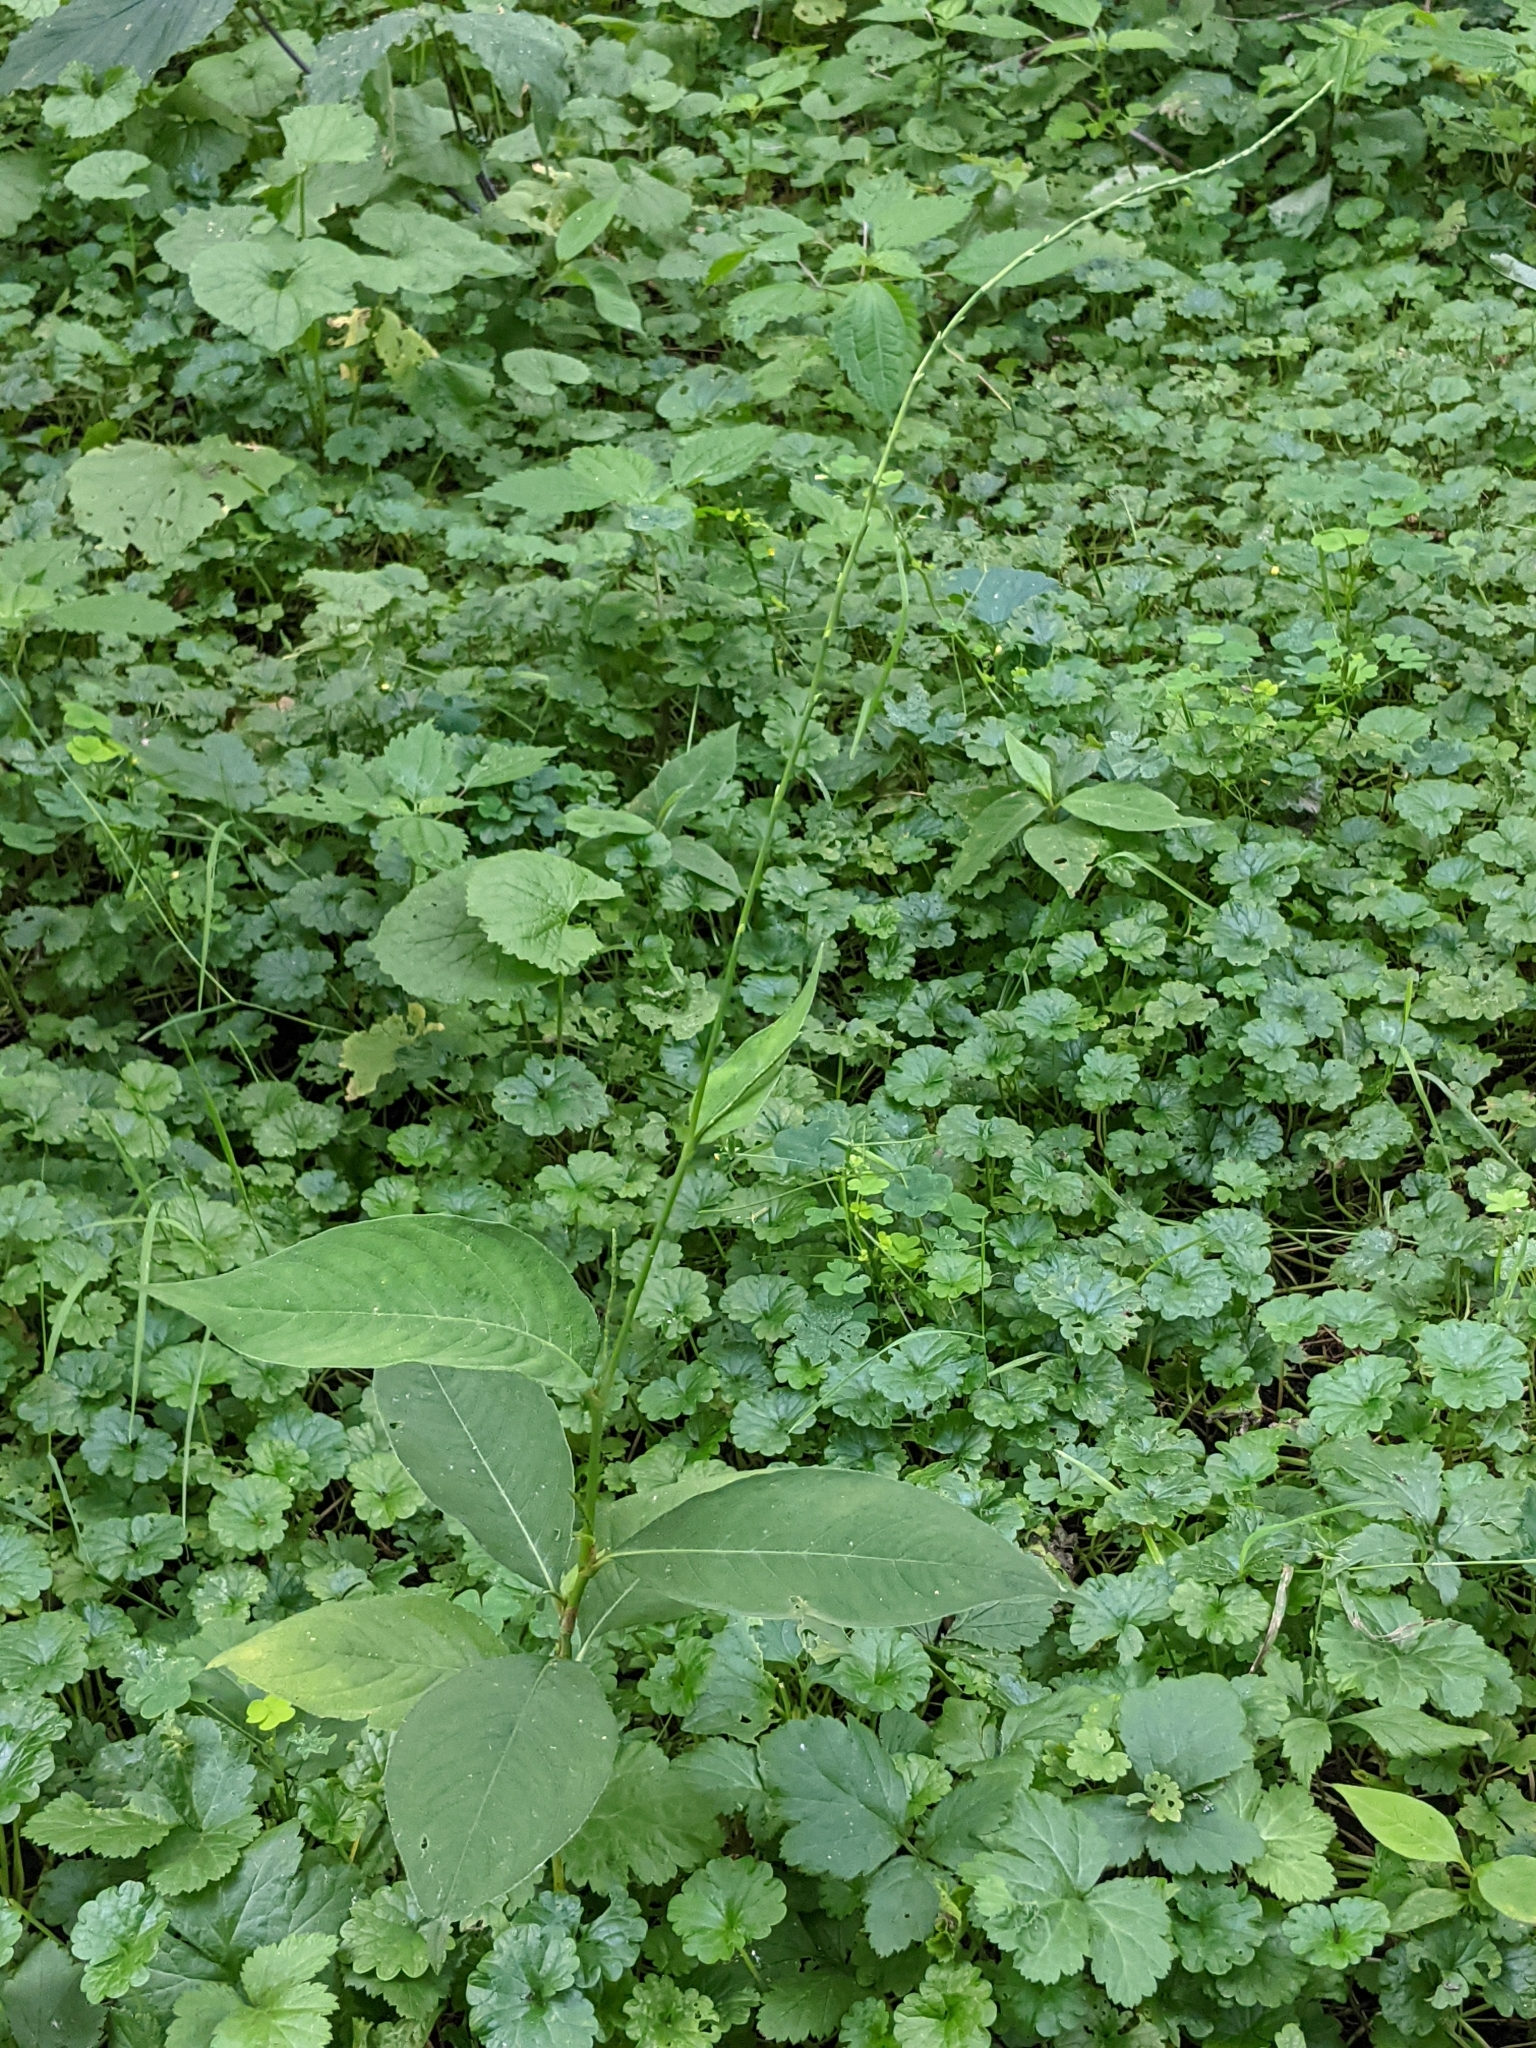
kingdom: Plantae
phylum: Tracheophyta
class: Magnoliopsida
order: Caryophyllales
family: Polygonaceae
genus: Persicaria
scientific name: Persicaria virginiana
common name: Jumpseed
